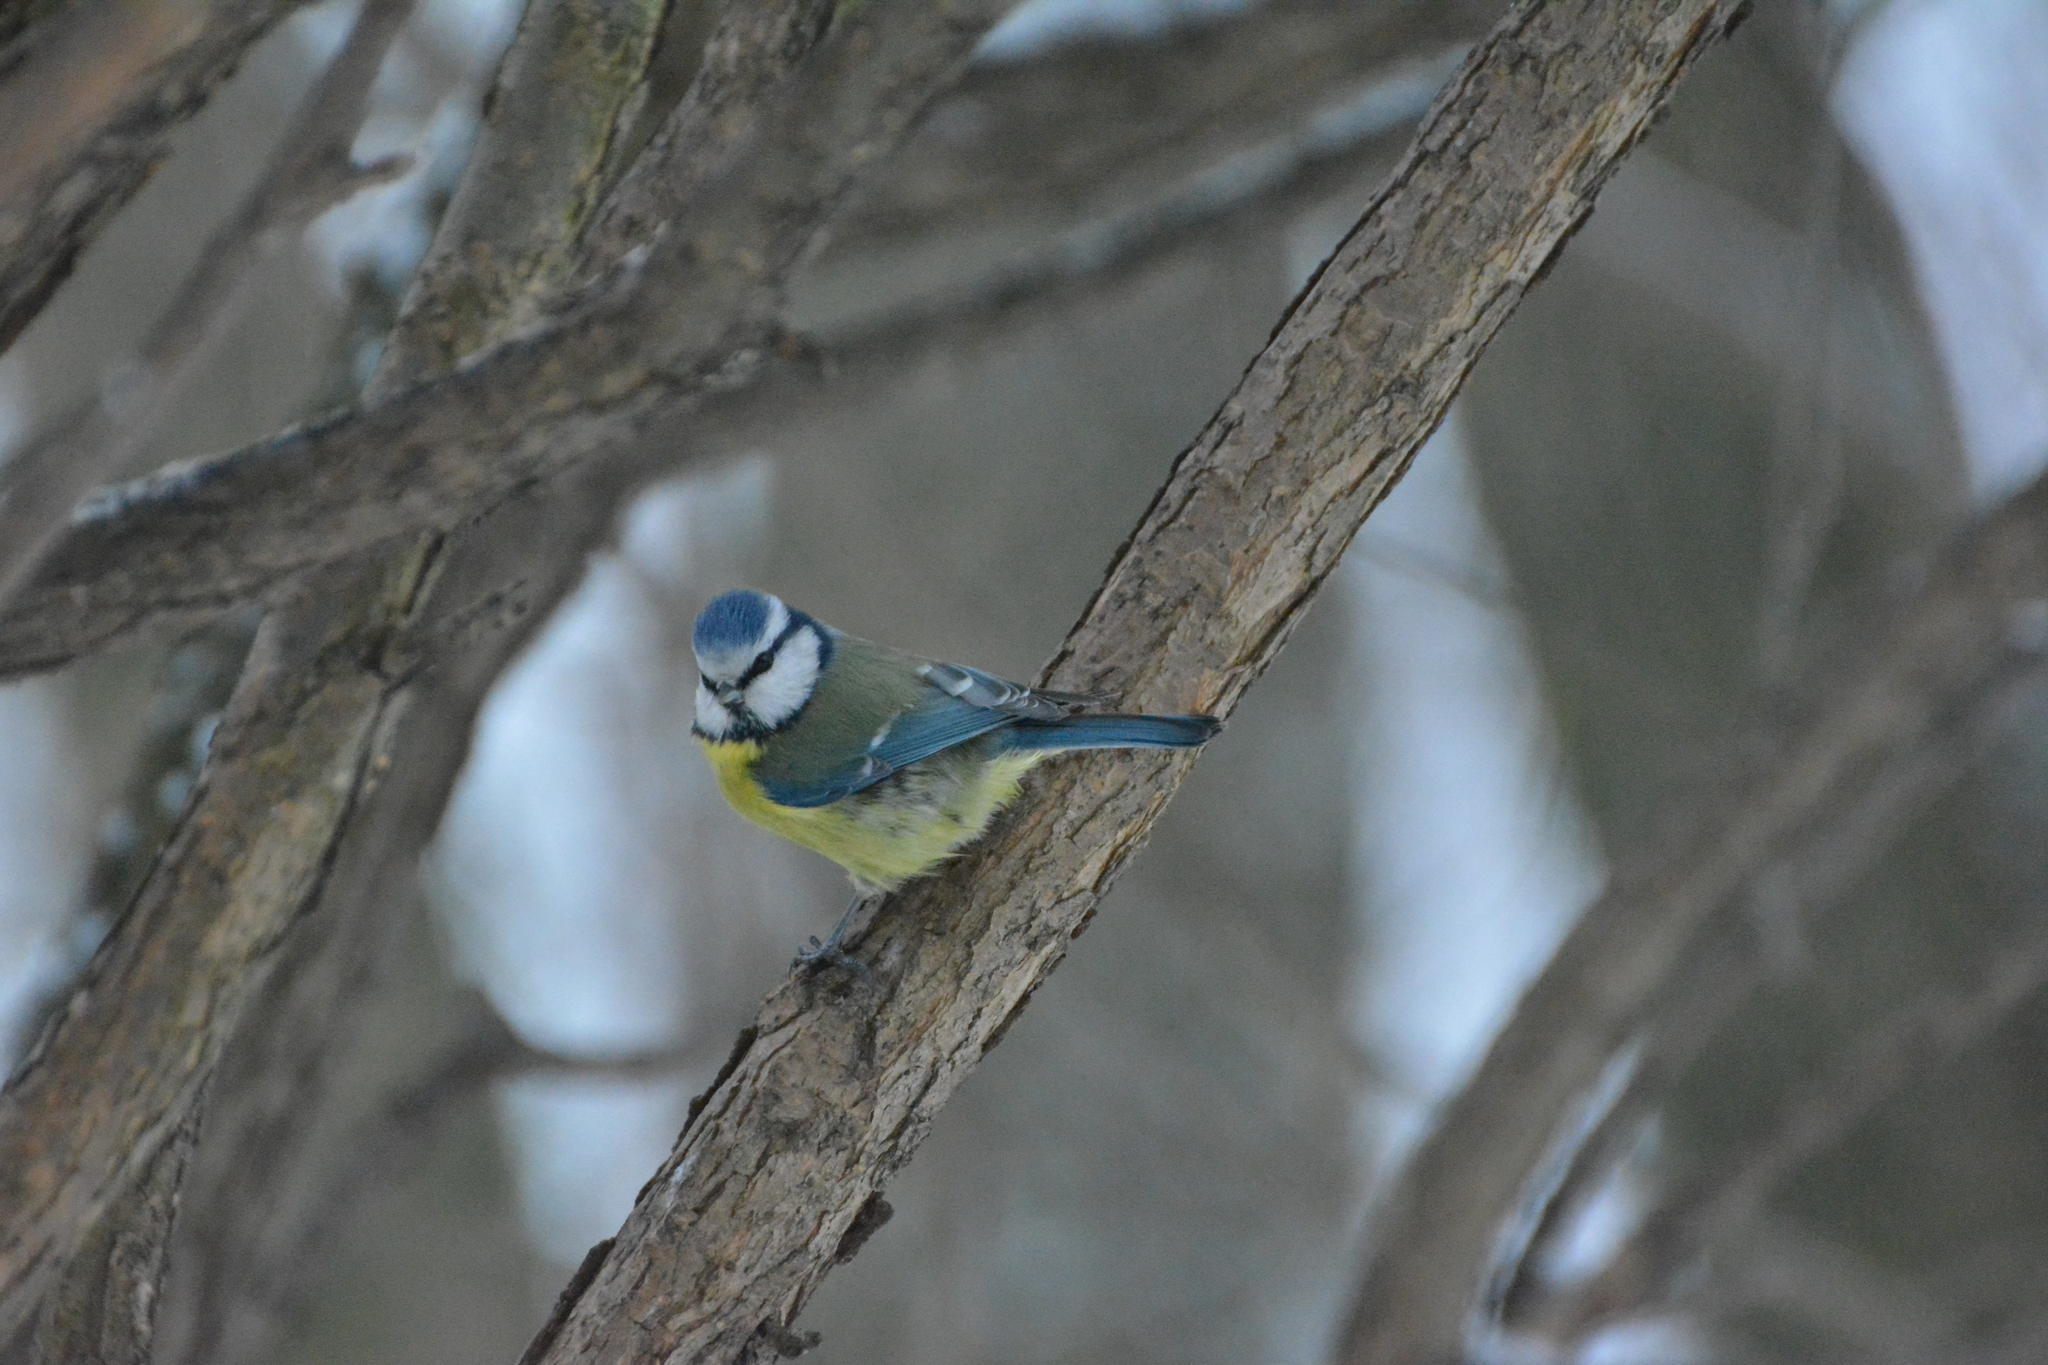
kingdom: Animalia
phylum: Chordata
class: Aves
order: Passeriformes
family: Paridae
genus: Cyanistes
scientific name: Cyanistes caeruleus
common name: Eurasian blue tit
